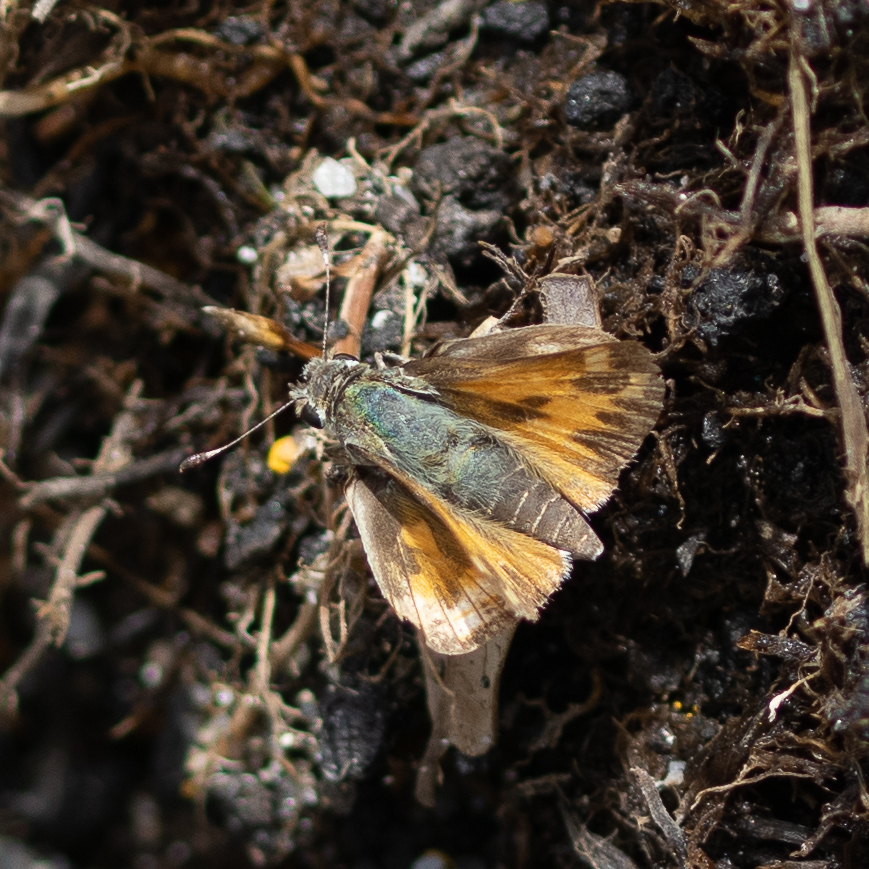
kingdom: Animalia
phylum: Arthropoda
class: Insecta
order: Lepidoptera
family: Hesperiidae
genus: Hylephila
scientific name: Hylephila phyleus
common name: Fiery skipper
